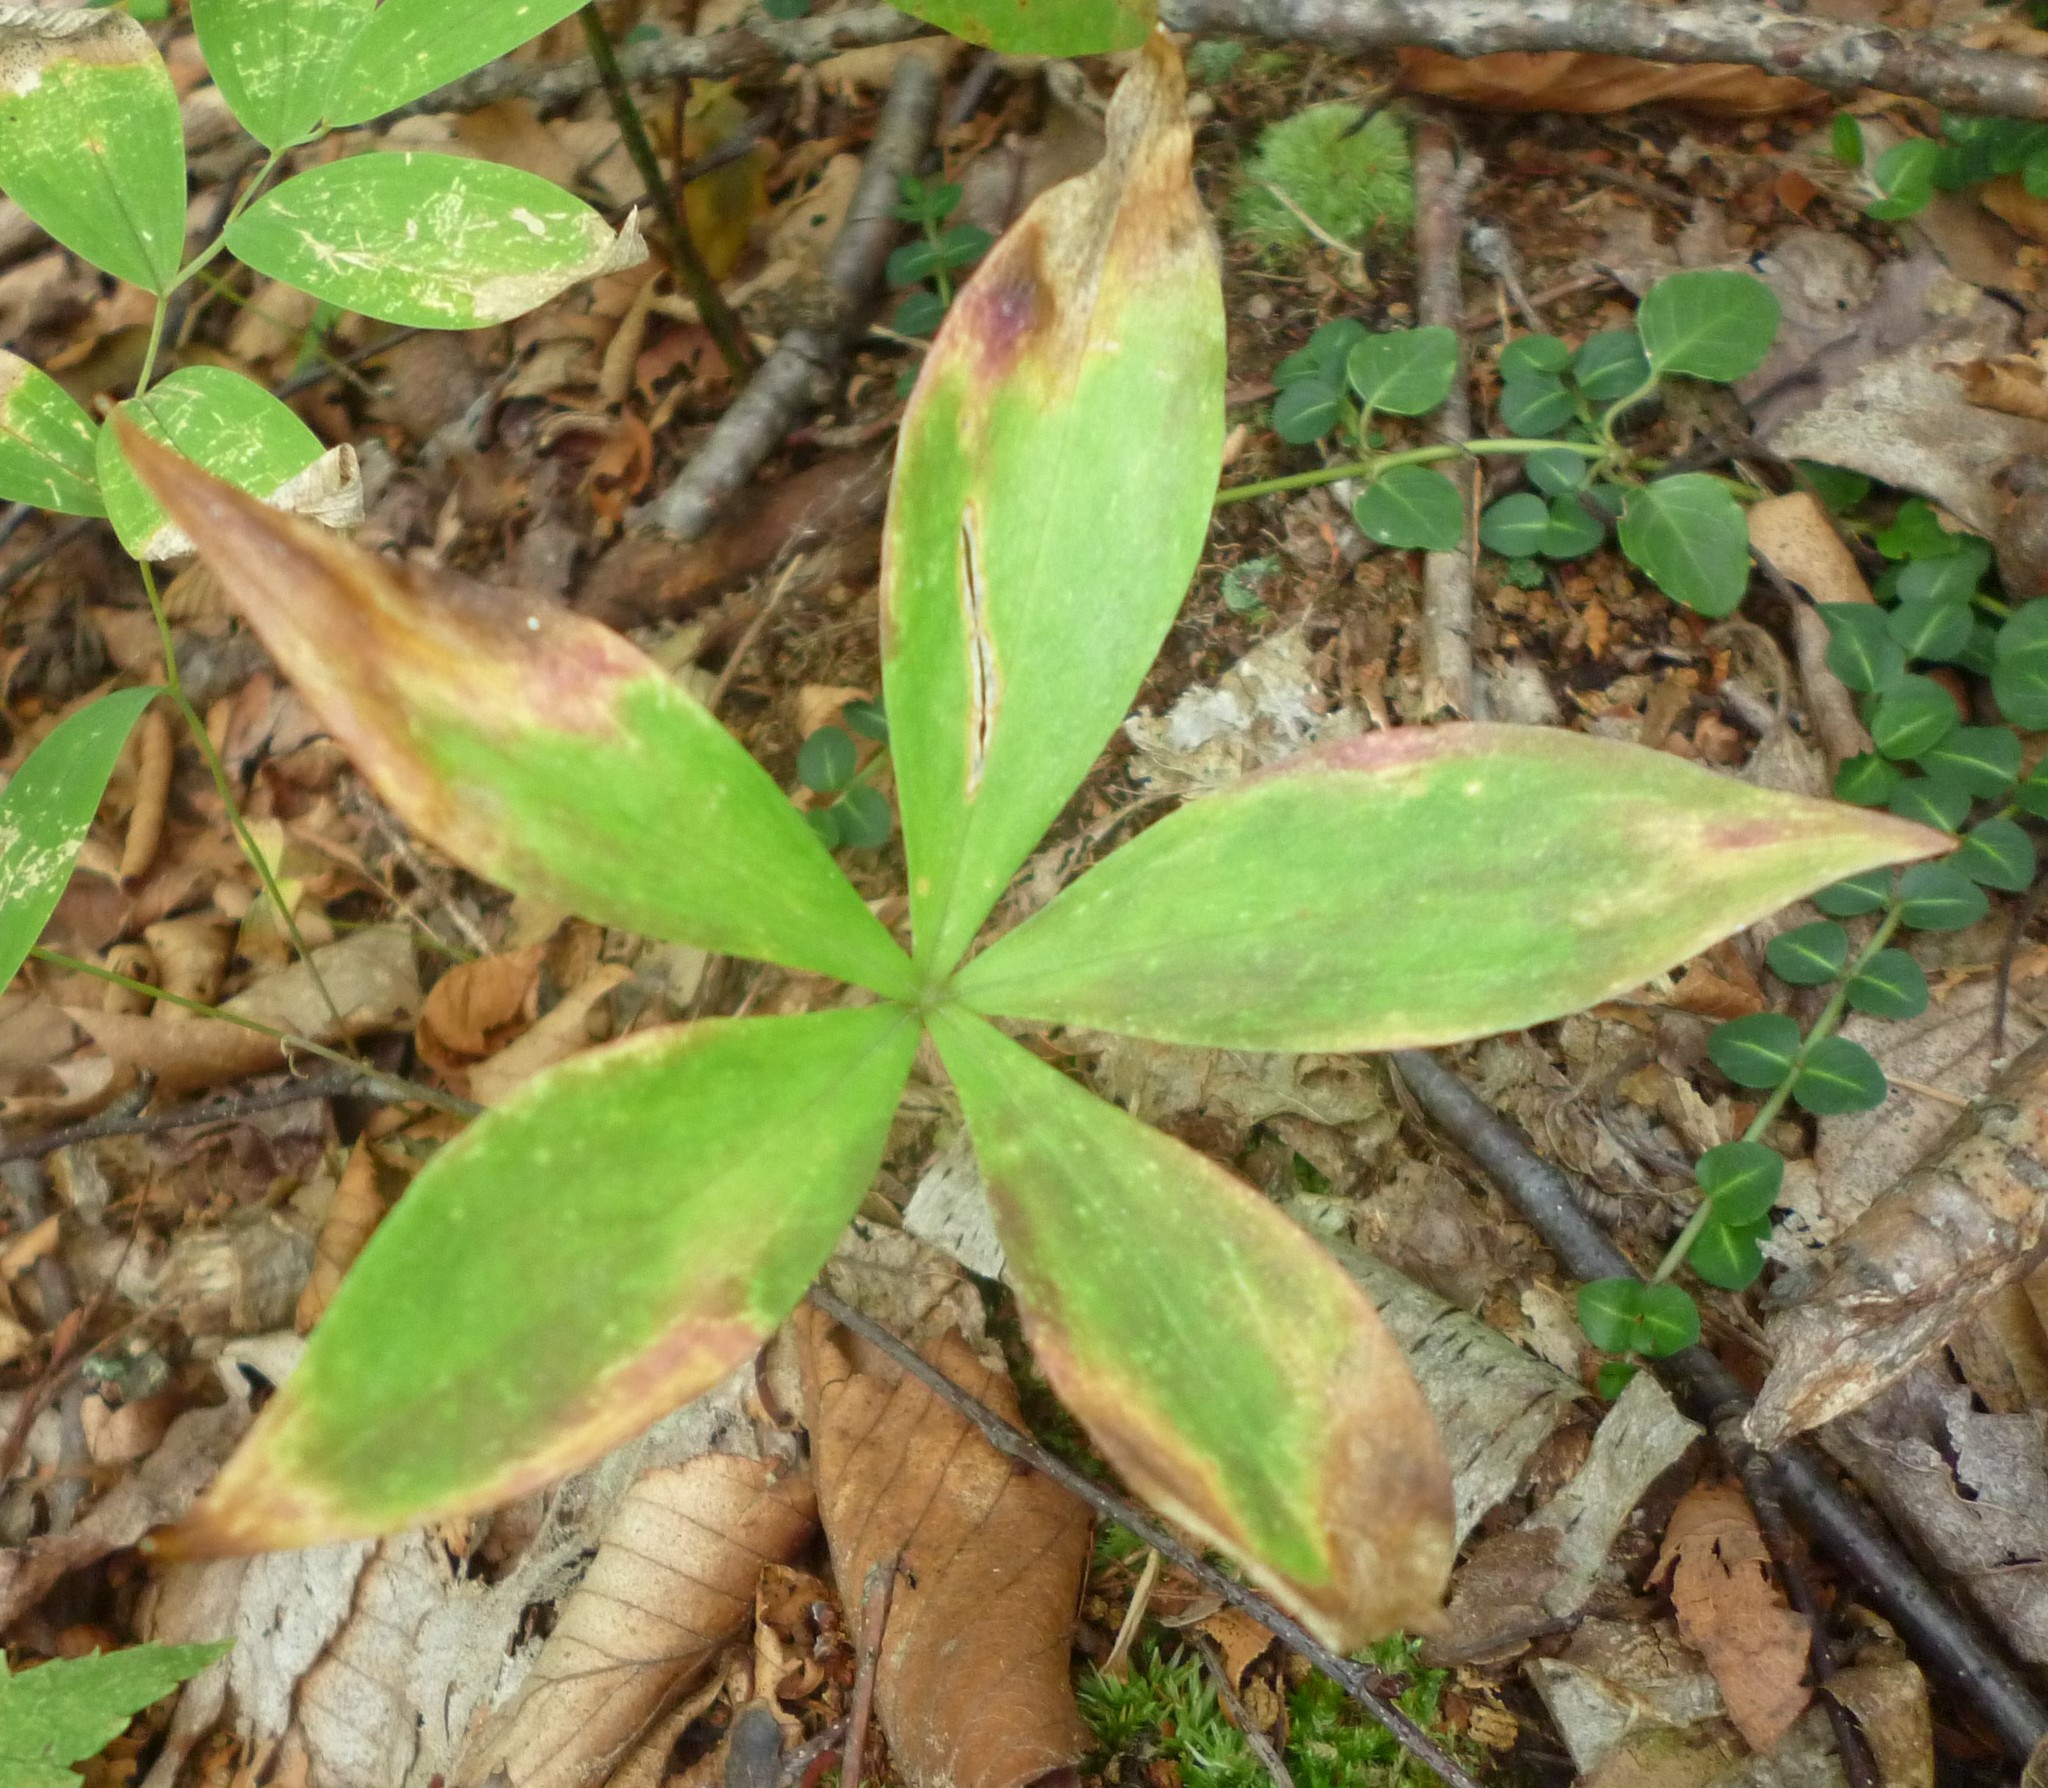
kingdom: Plantae
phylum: Tracheophyta
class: Liliopsida
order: Liliales
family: Liliaceae
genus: Medeola
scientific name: Medeola virginiana
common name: Indian cucumber-root
